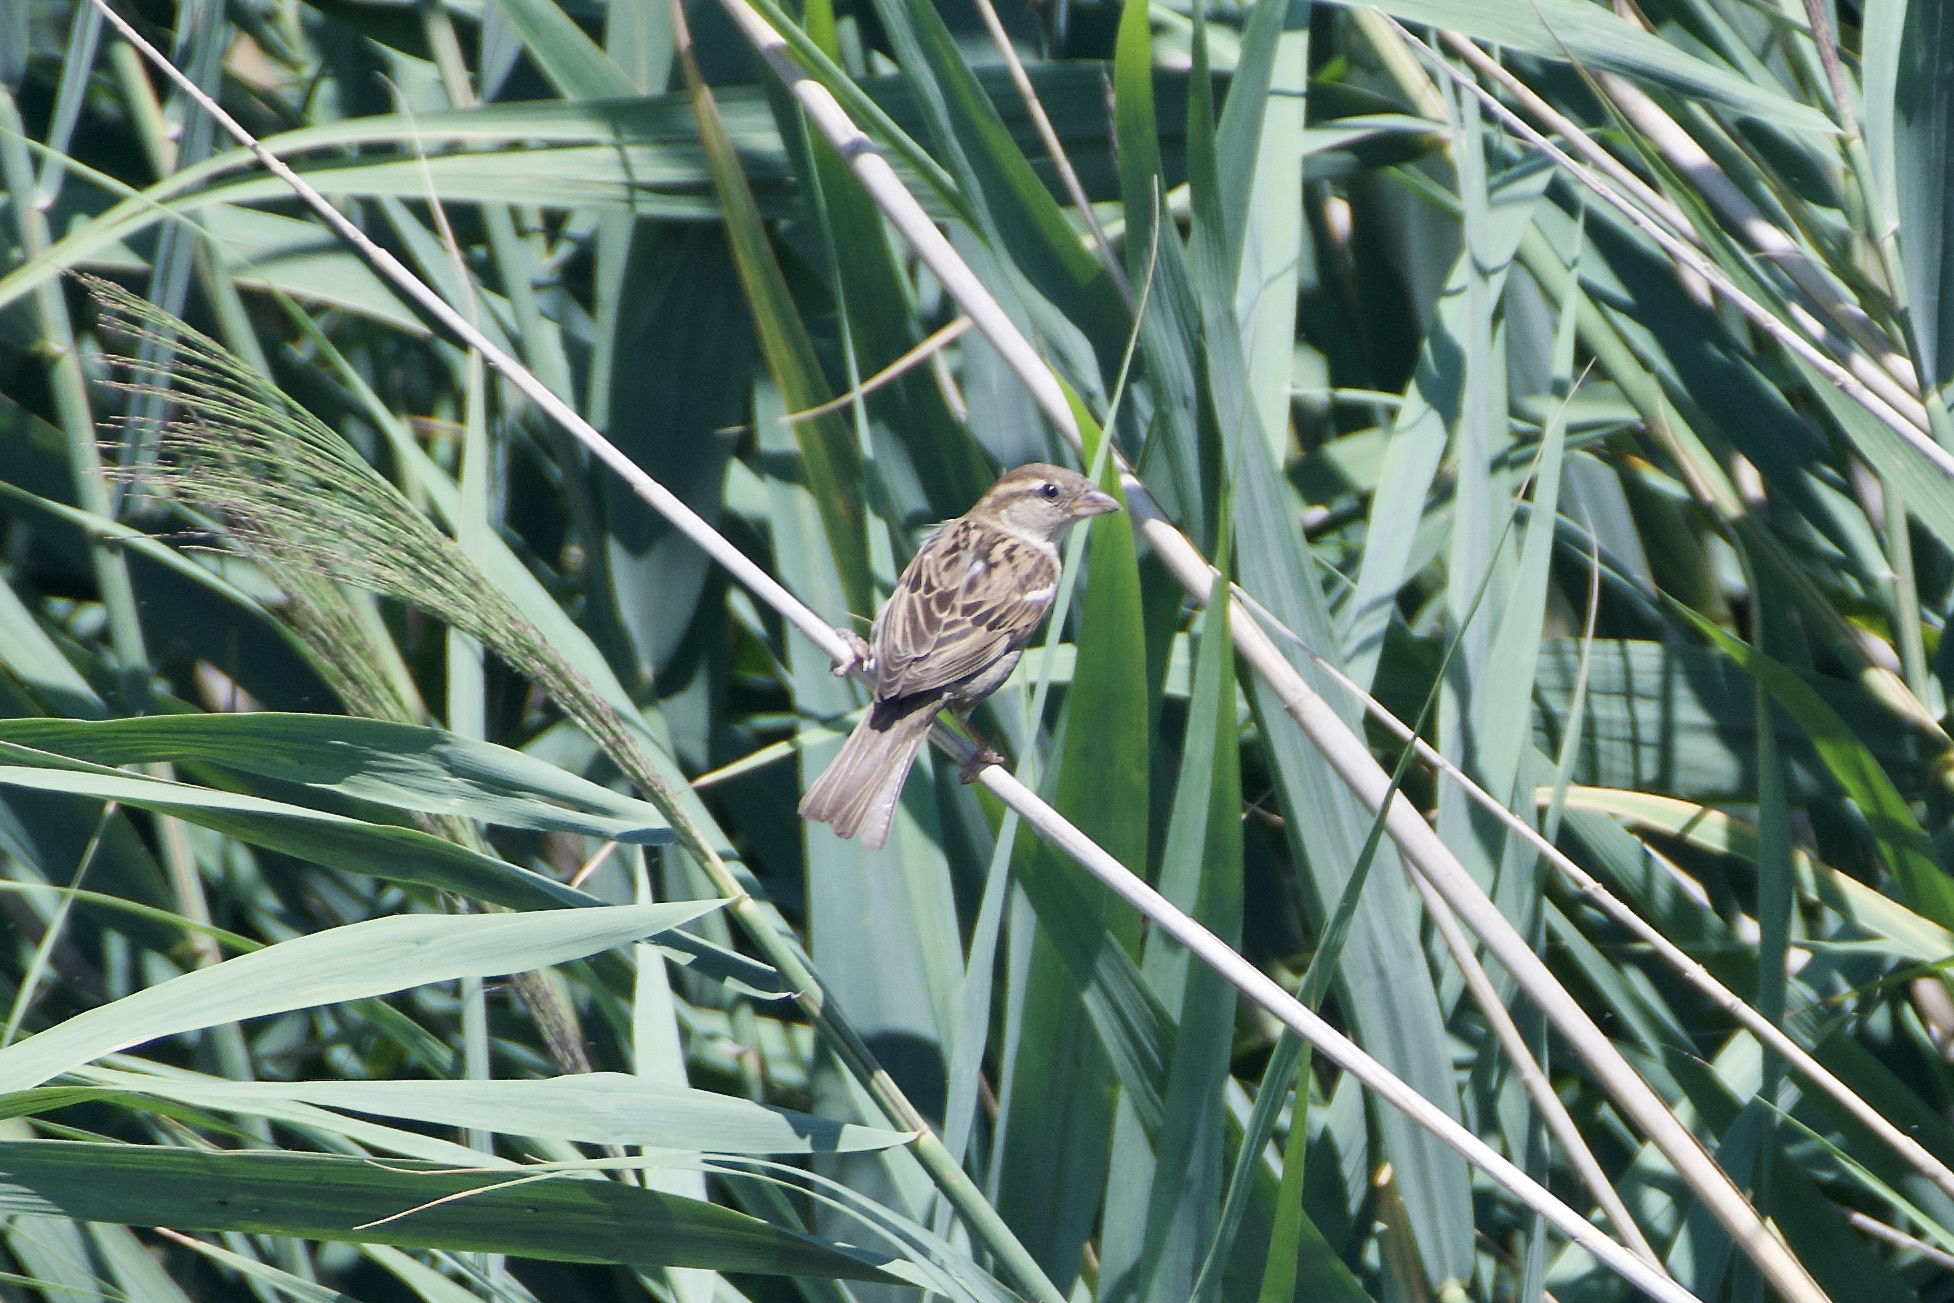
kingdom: Animalia
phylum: Chordata
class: Aves
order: Passeriformes
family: Passeridae
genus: Passer
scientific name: Passer italiae
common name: Italian sparrow
